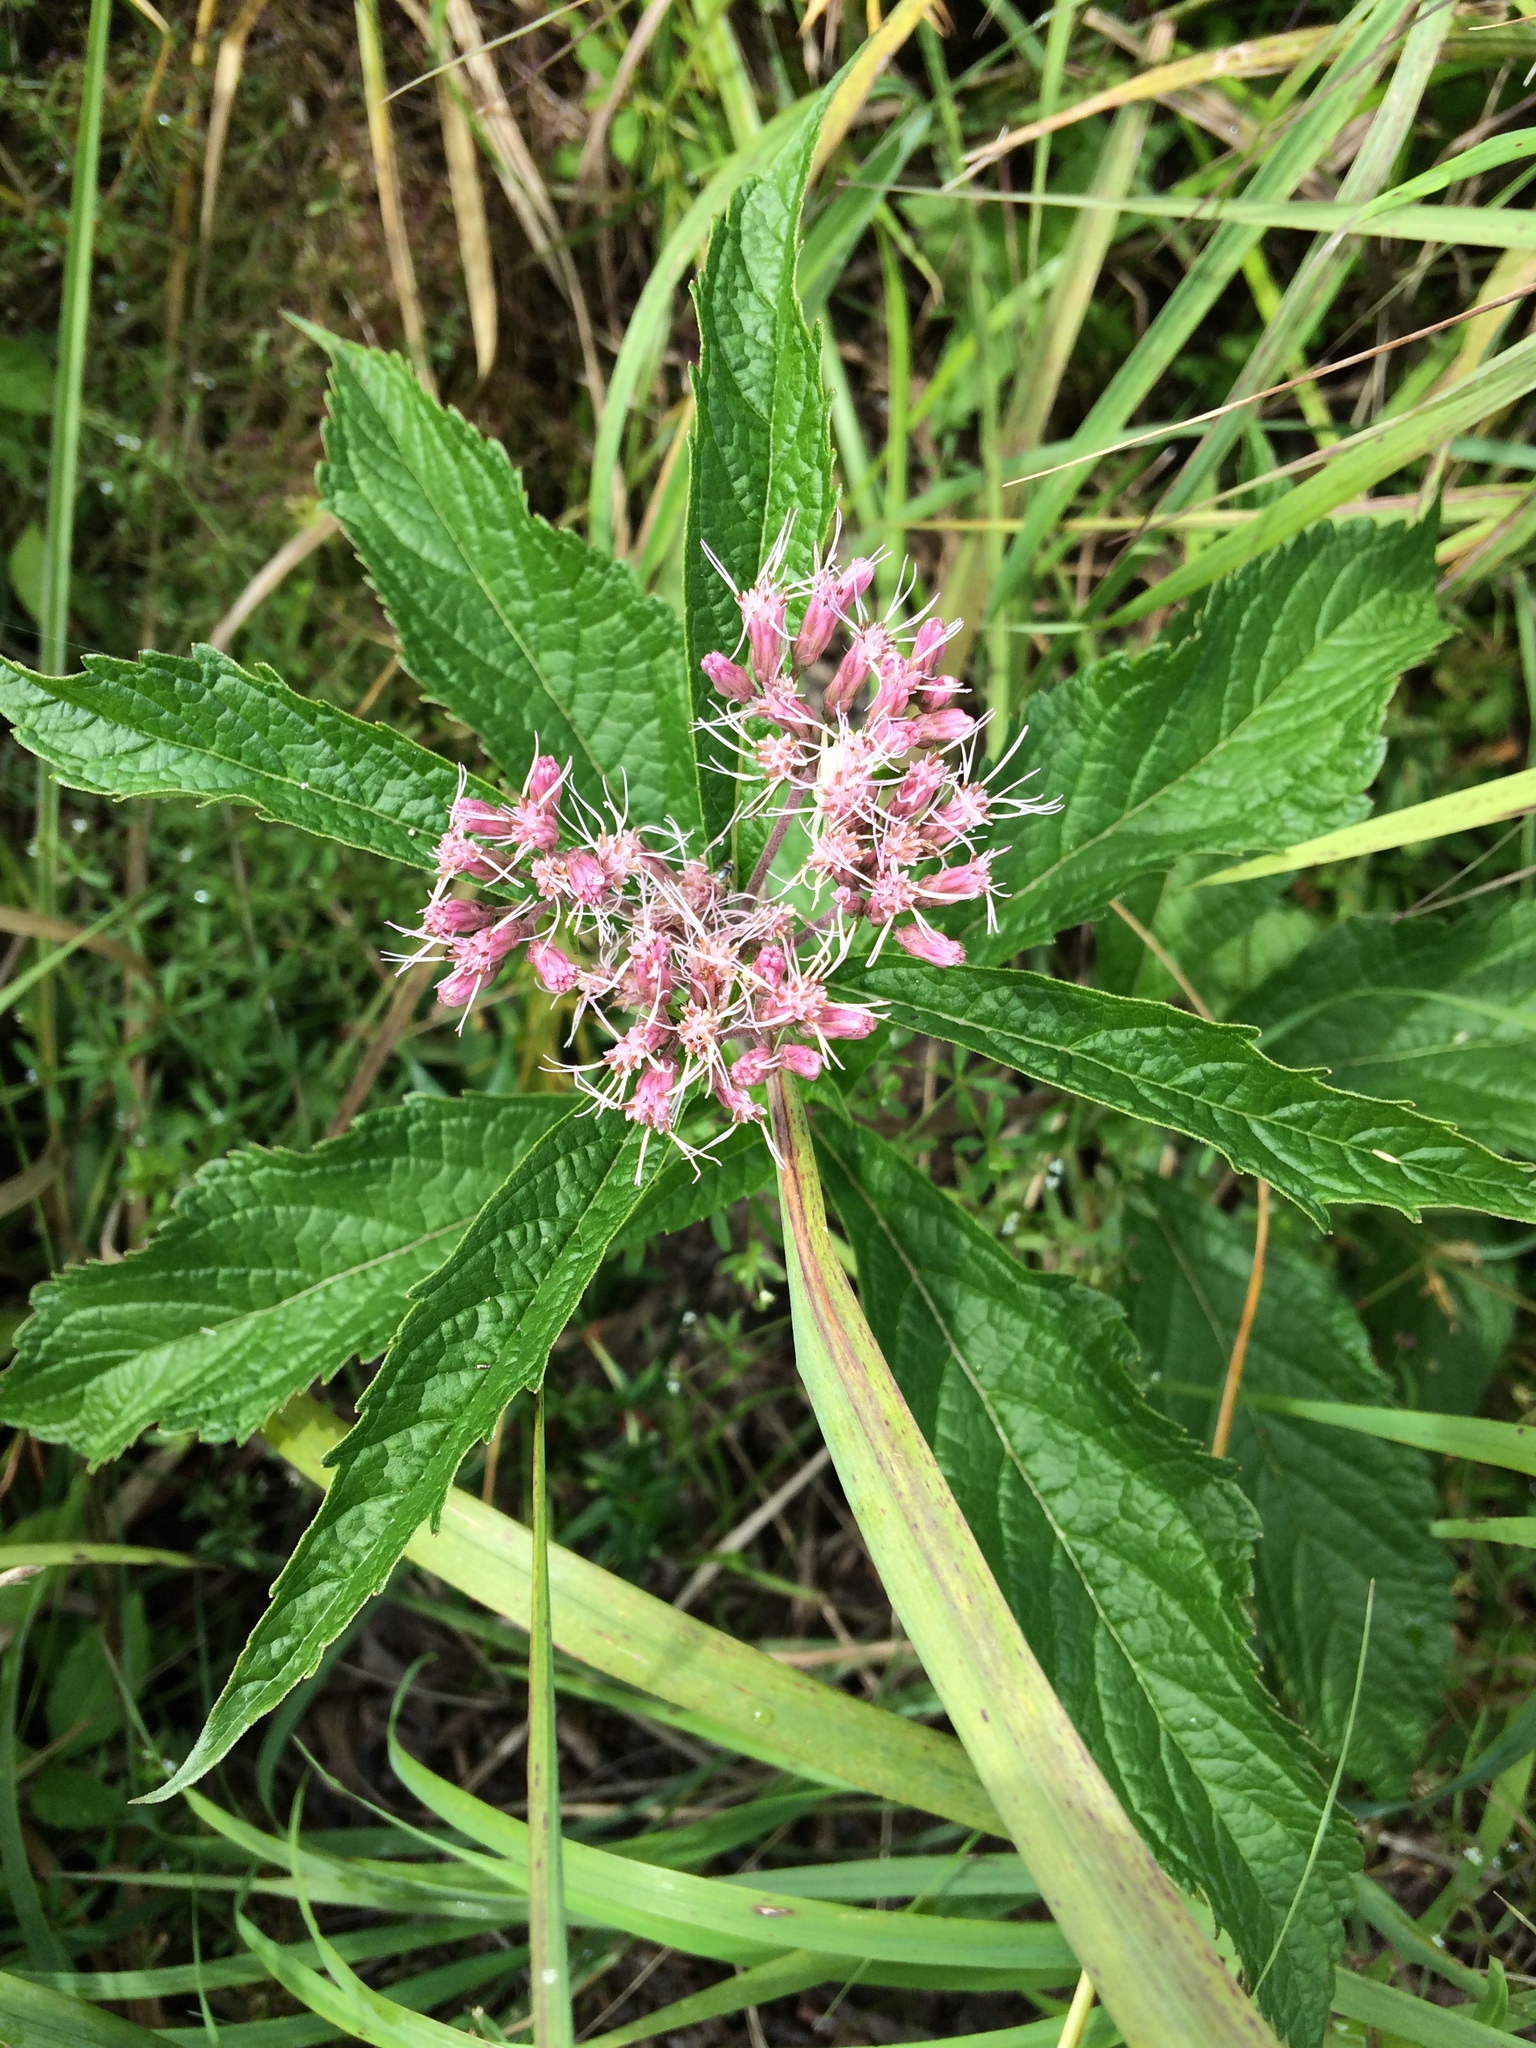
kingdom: Plantae
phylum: Tracheophyta
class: Magnoliopsida
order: Asterales
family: Asteraceae
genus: Eutrochium
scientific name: Eutrochium maculatum
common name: Spotted joe pye weed
